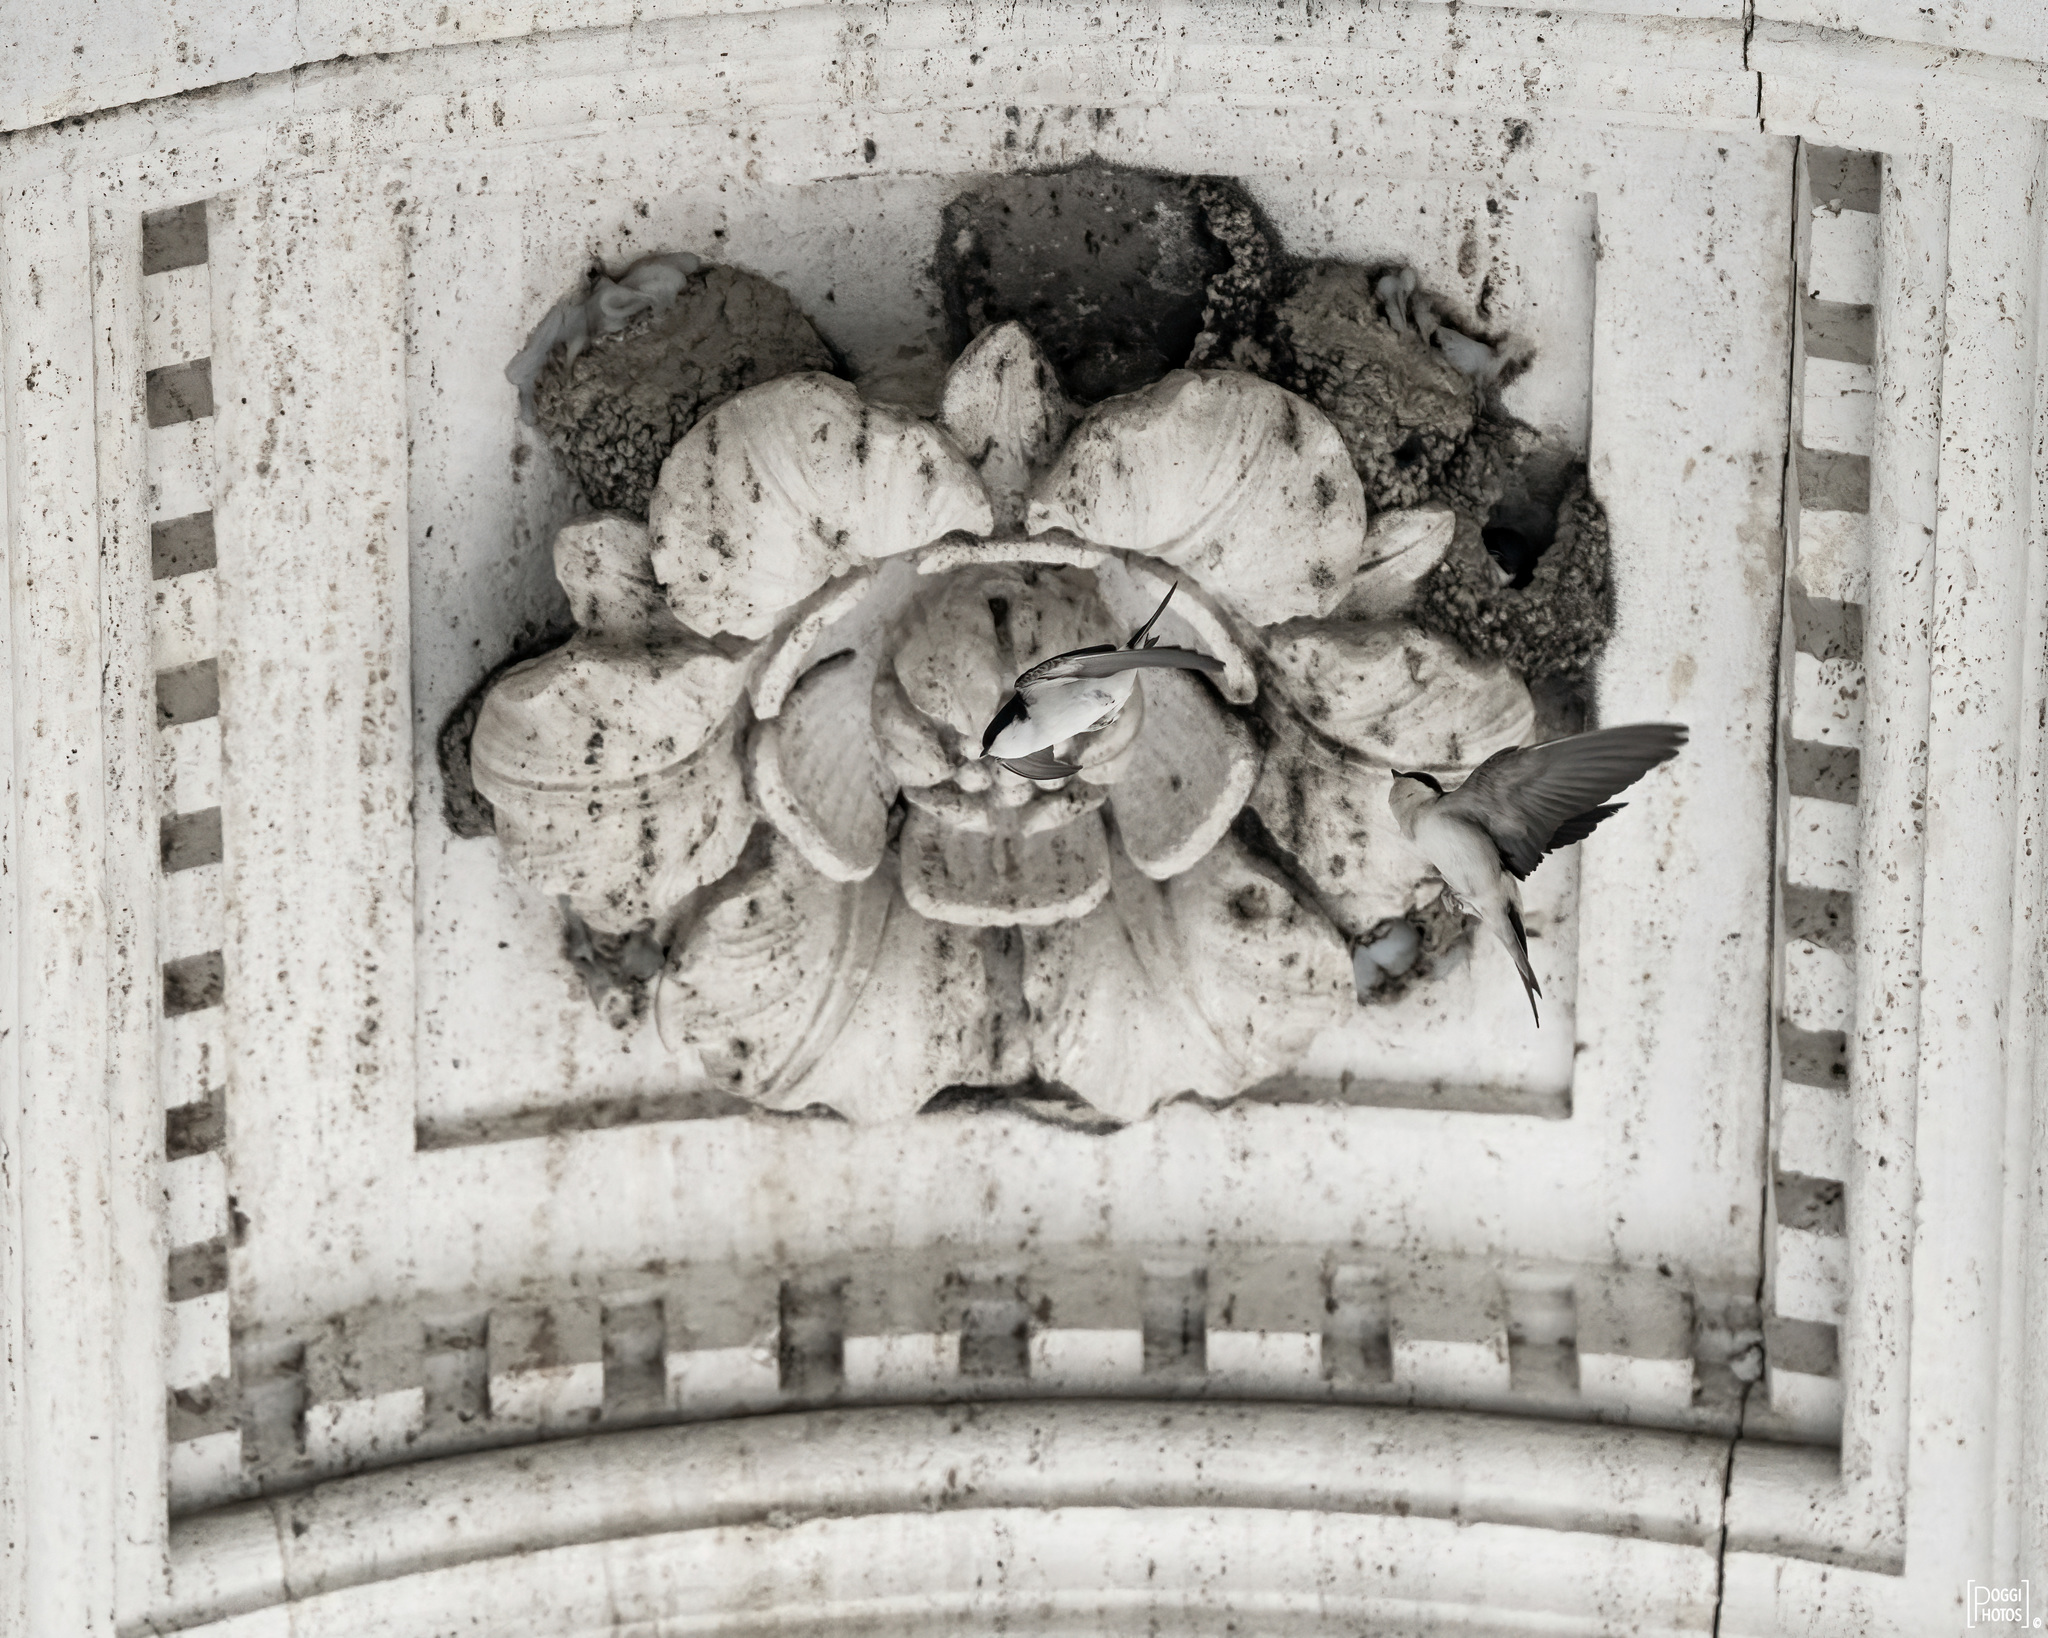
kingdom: Animalia
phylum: Chordata
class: Aves
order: Passeriformes
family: Hirundinidae
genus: Delichon
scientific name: Delichon urbicum
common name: Common house martin
